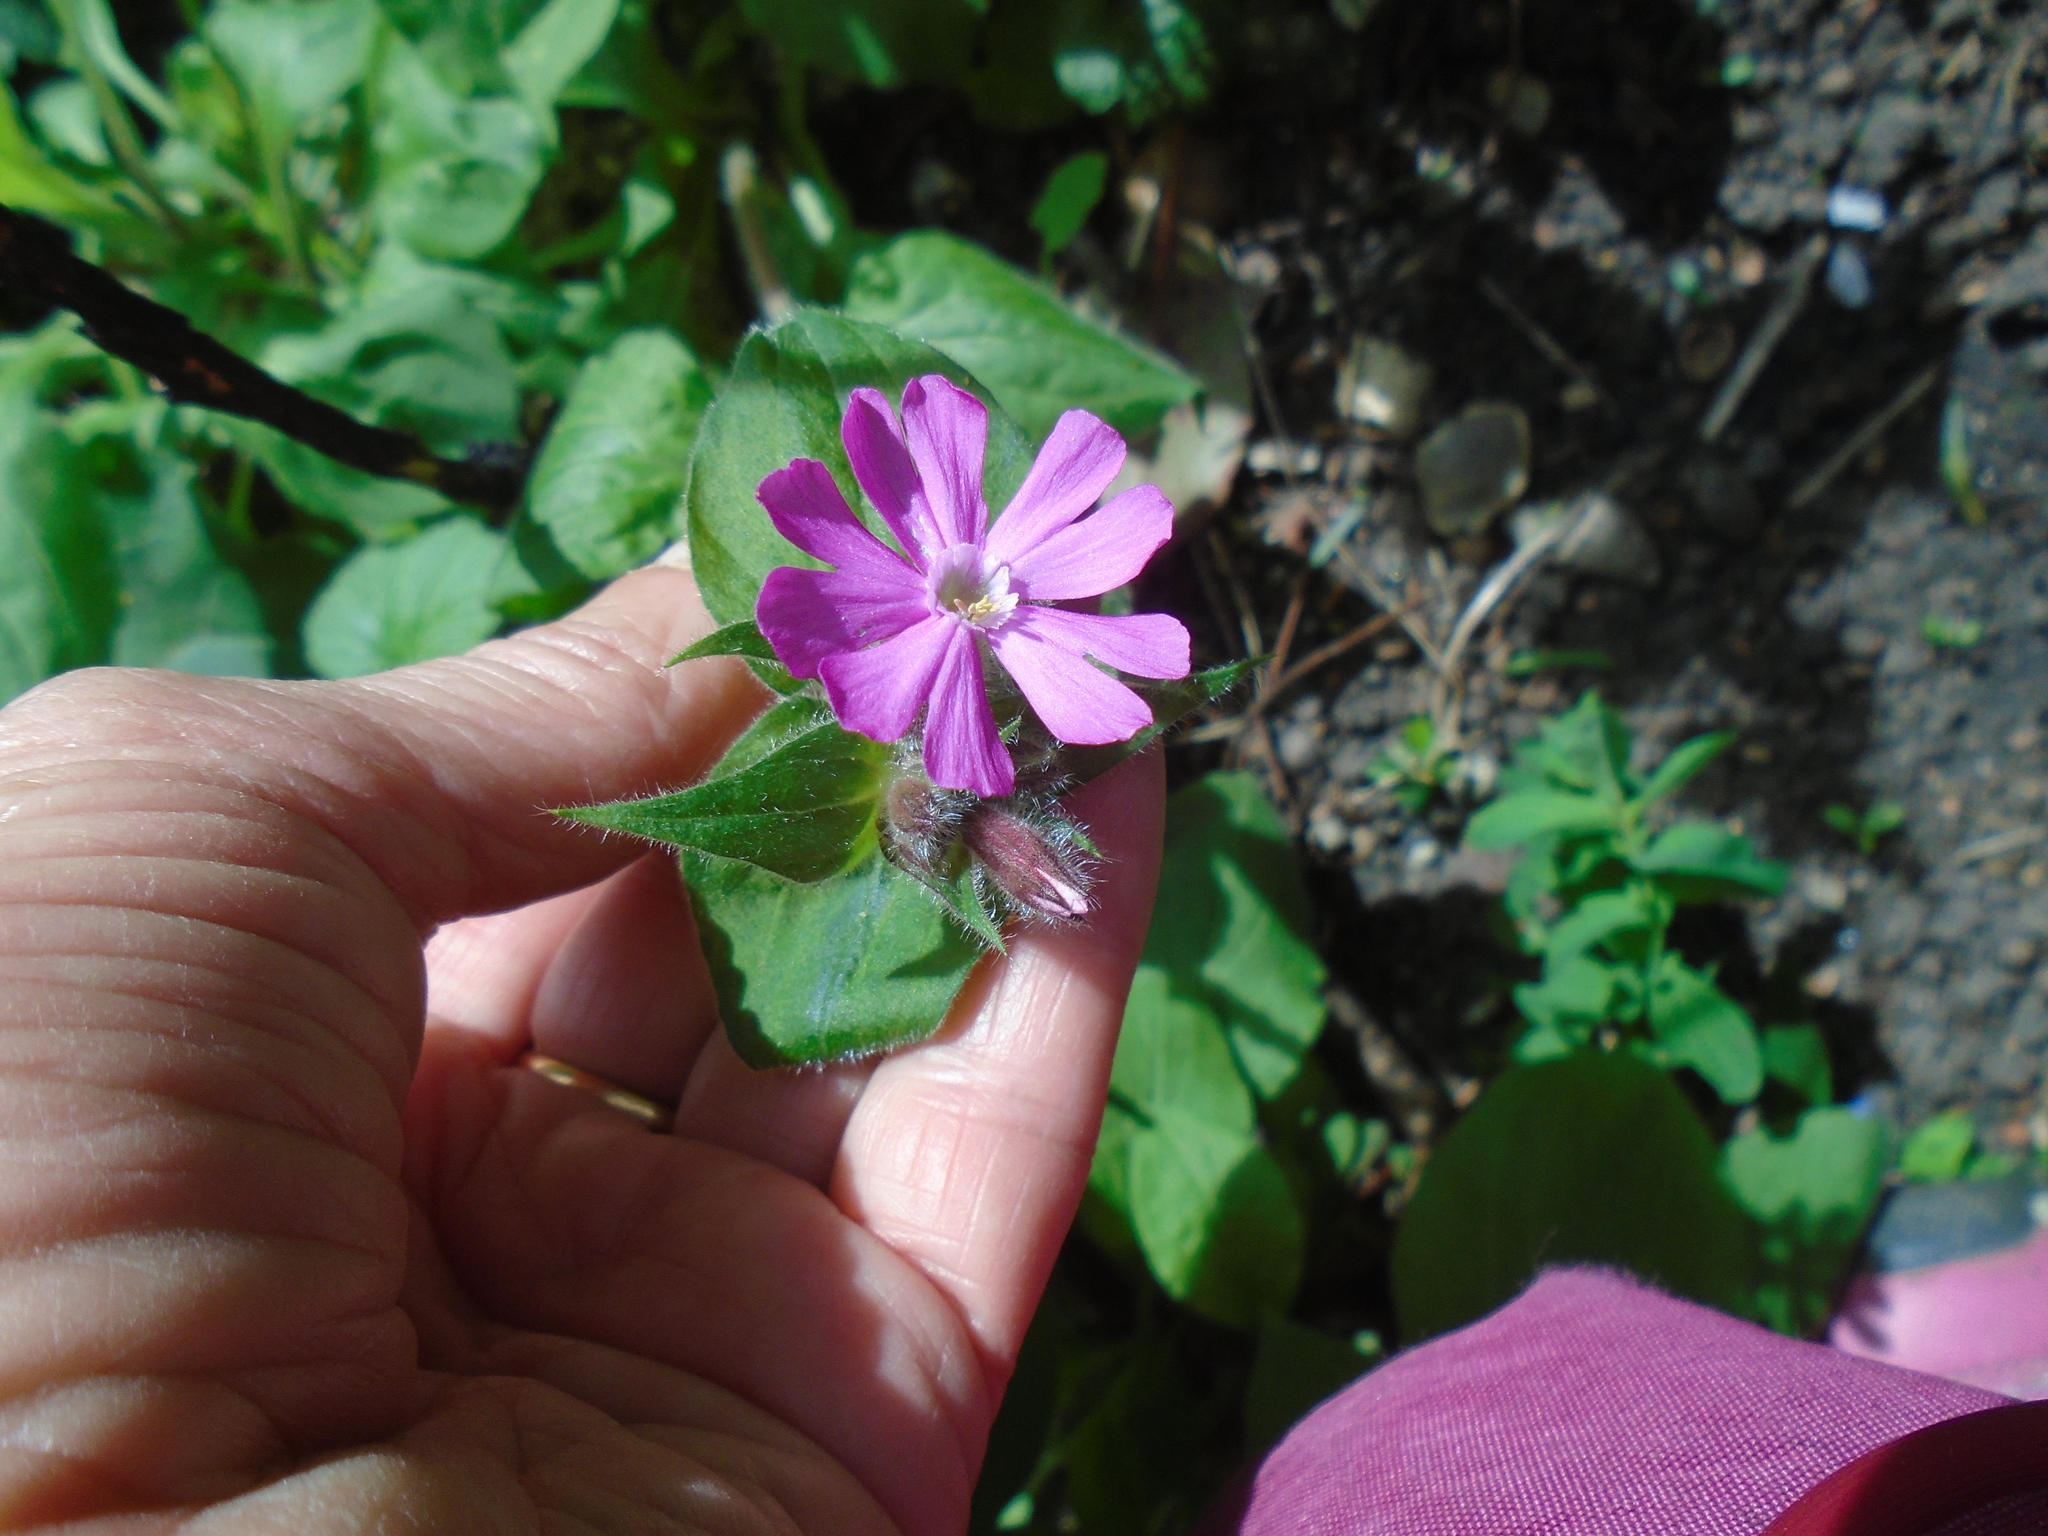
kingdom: Plantae
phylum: Tracheophyta
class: Magnoliopsida
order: Caryophyllales
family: Caryophyllaceae
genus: Silene
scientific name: Silene dioica
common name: Red campion
